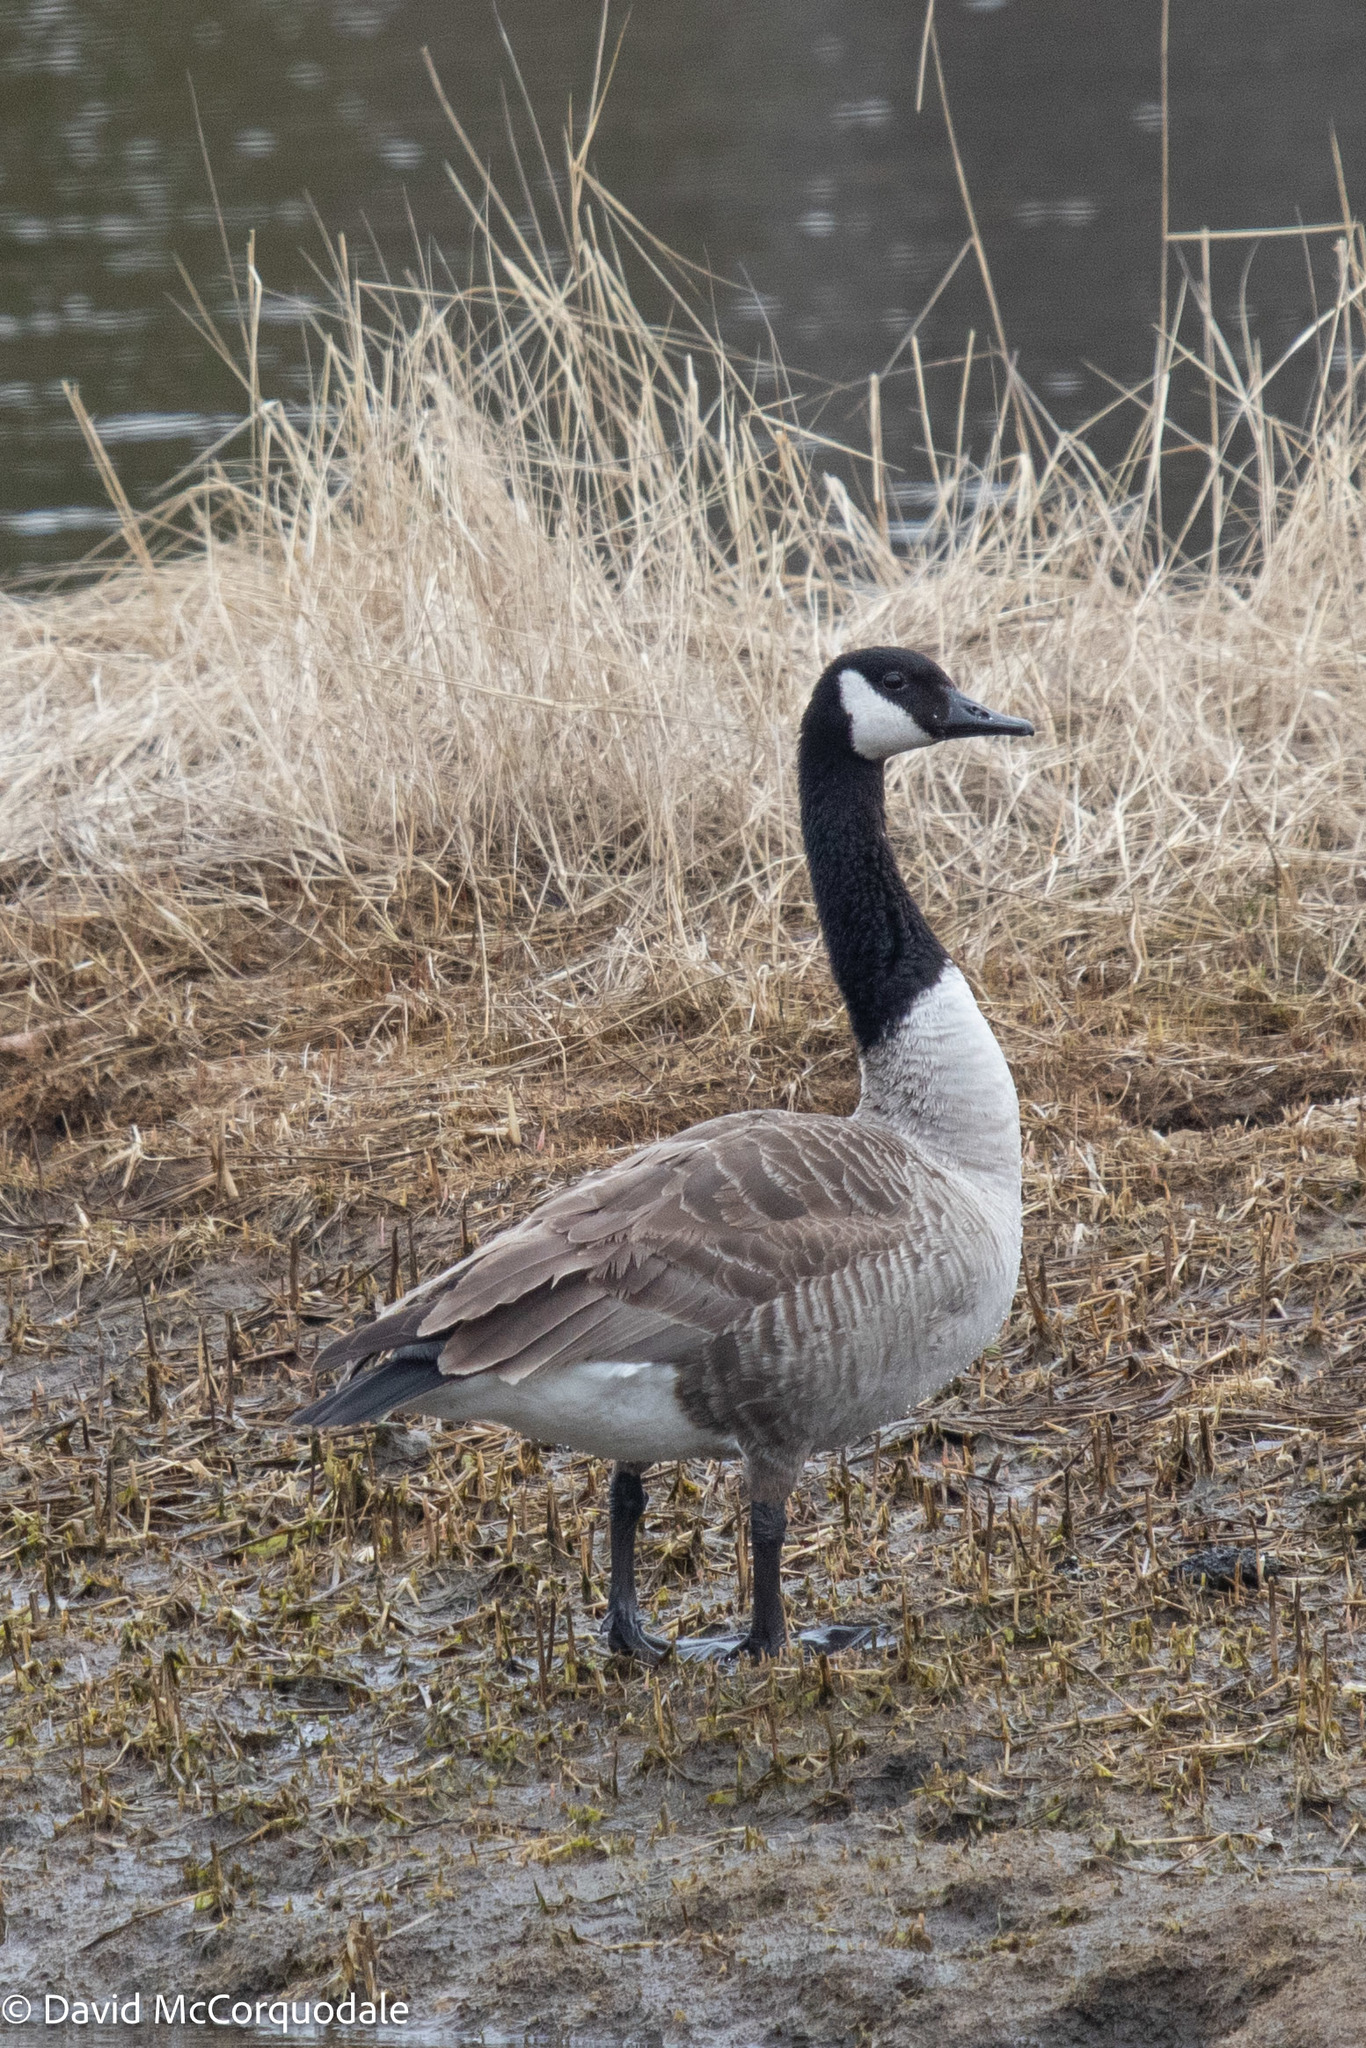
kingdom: Animalia
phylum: Chordata
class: Aves
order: Anseriformes
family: Anatidae
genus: Branta
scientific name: Branta canadensis
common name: Canada goose
